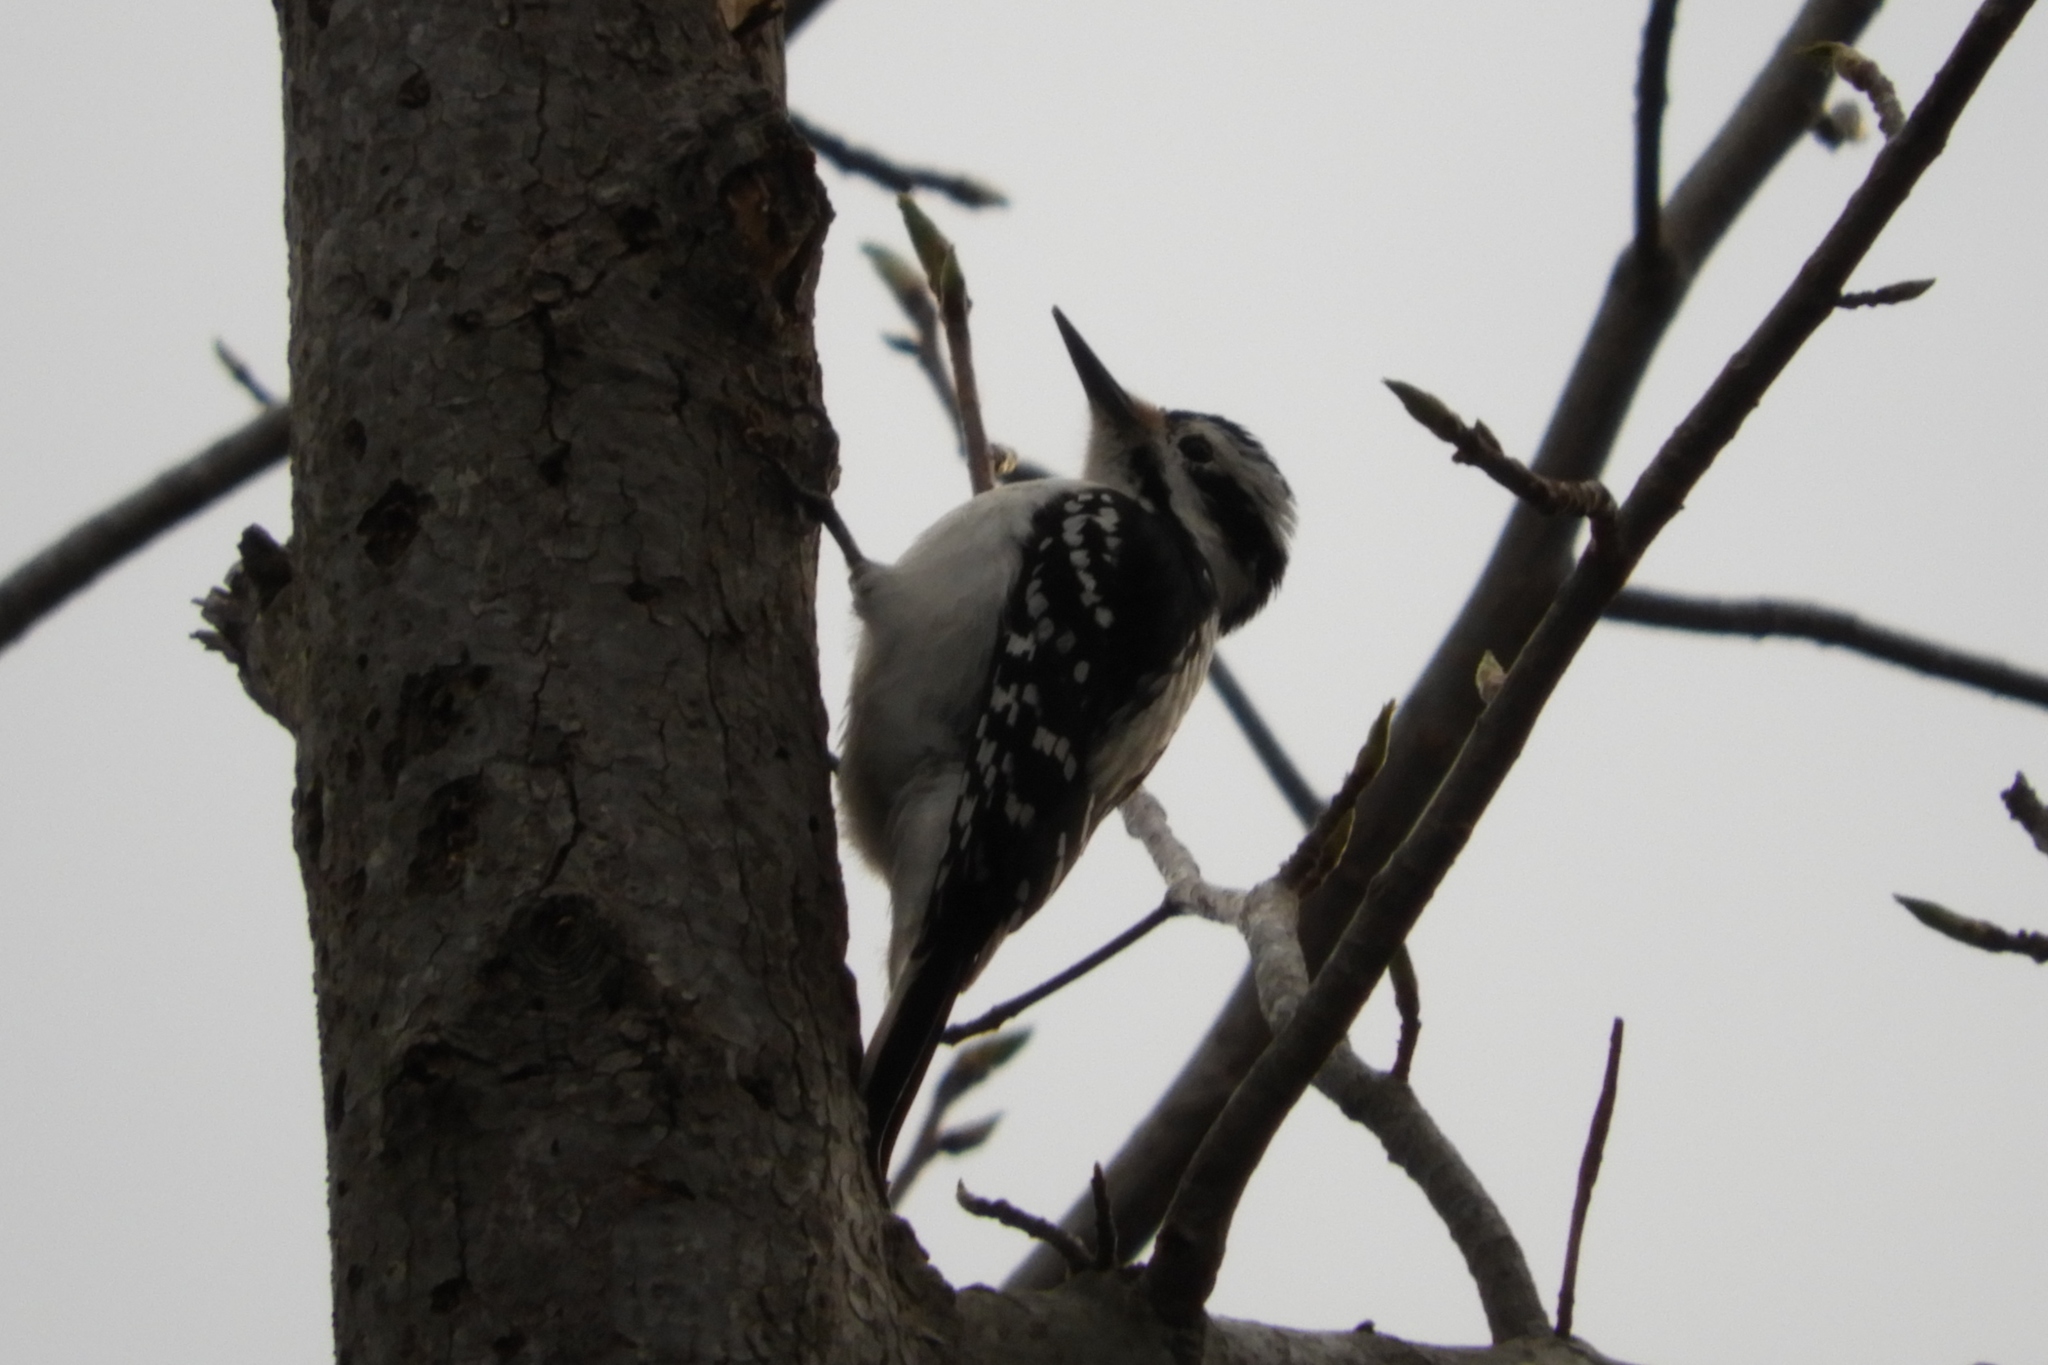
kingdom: Animalia
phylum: Chordata
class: Aves
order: Piciformes
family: Picidae
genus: Leuconotopicus
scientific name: Leuconotopicus villosus
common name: Hairy woodpecker
